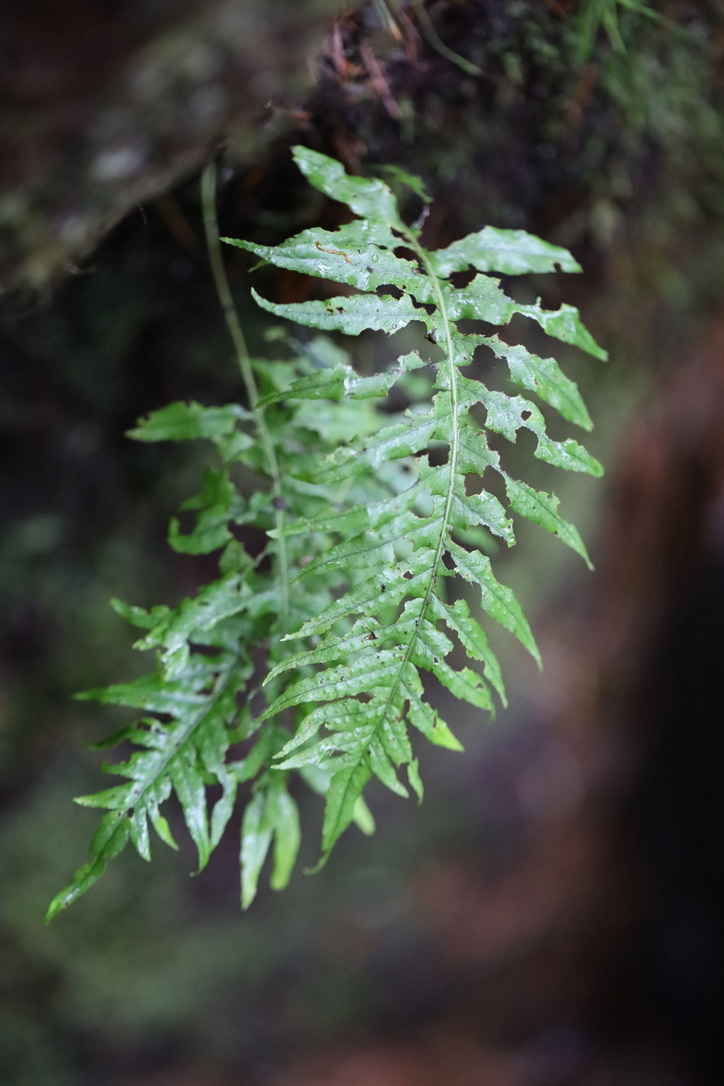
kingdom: Plantae
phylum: Tracheophyta
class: Polypodiopsida
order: Polypodiales
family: Polypodiaceae
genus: Polypodium
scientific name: Polypodium glycyrrhiza
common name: Licorice fern
